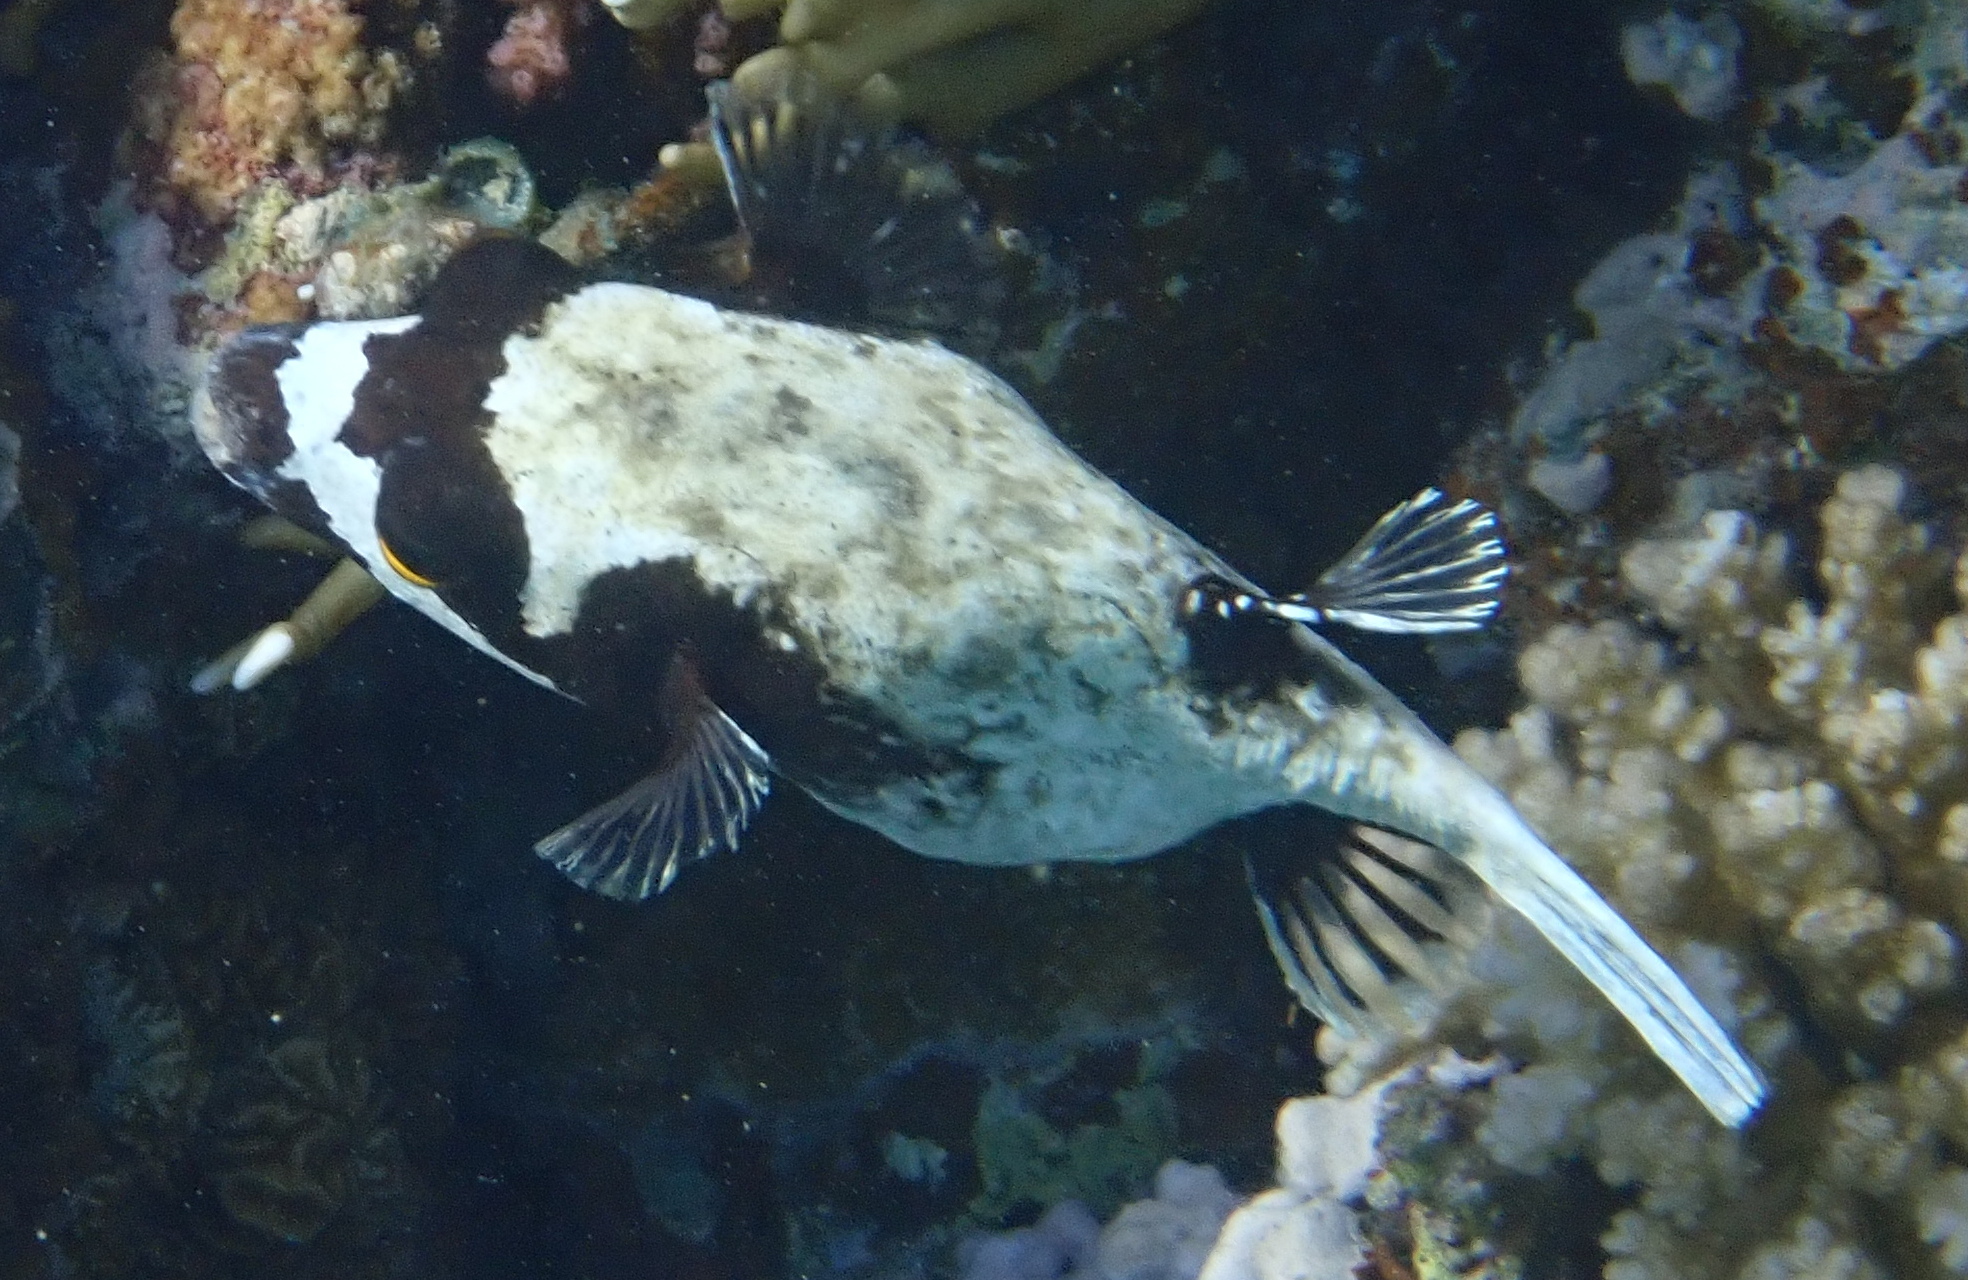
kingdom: Animalia
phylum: Chordata
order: Tetraodontiformes
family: Tetraodontidae
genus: Arothron
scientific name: Arothron diadematus
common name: Masked puffer
